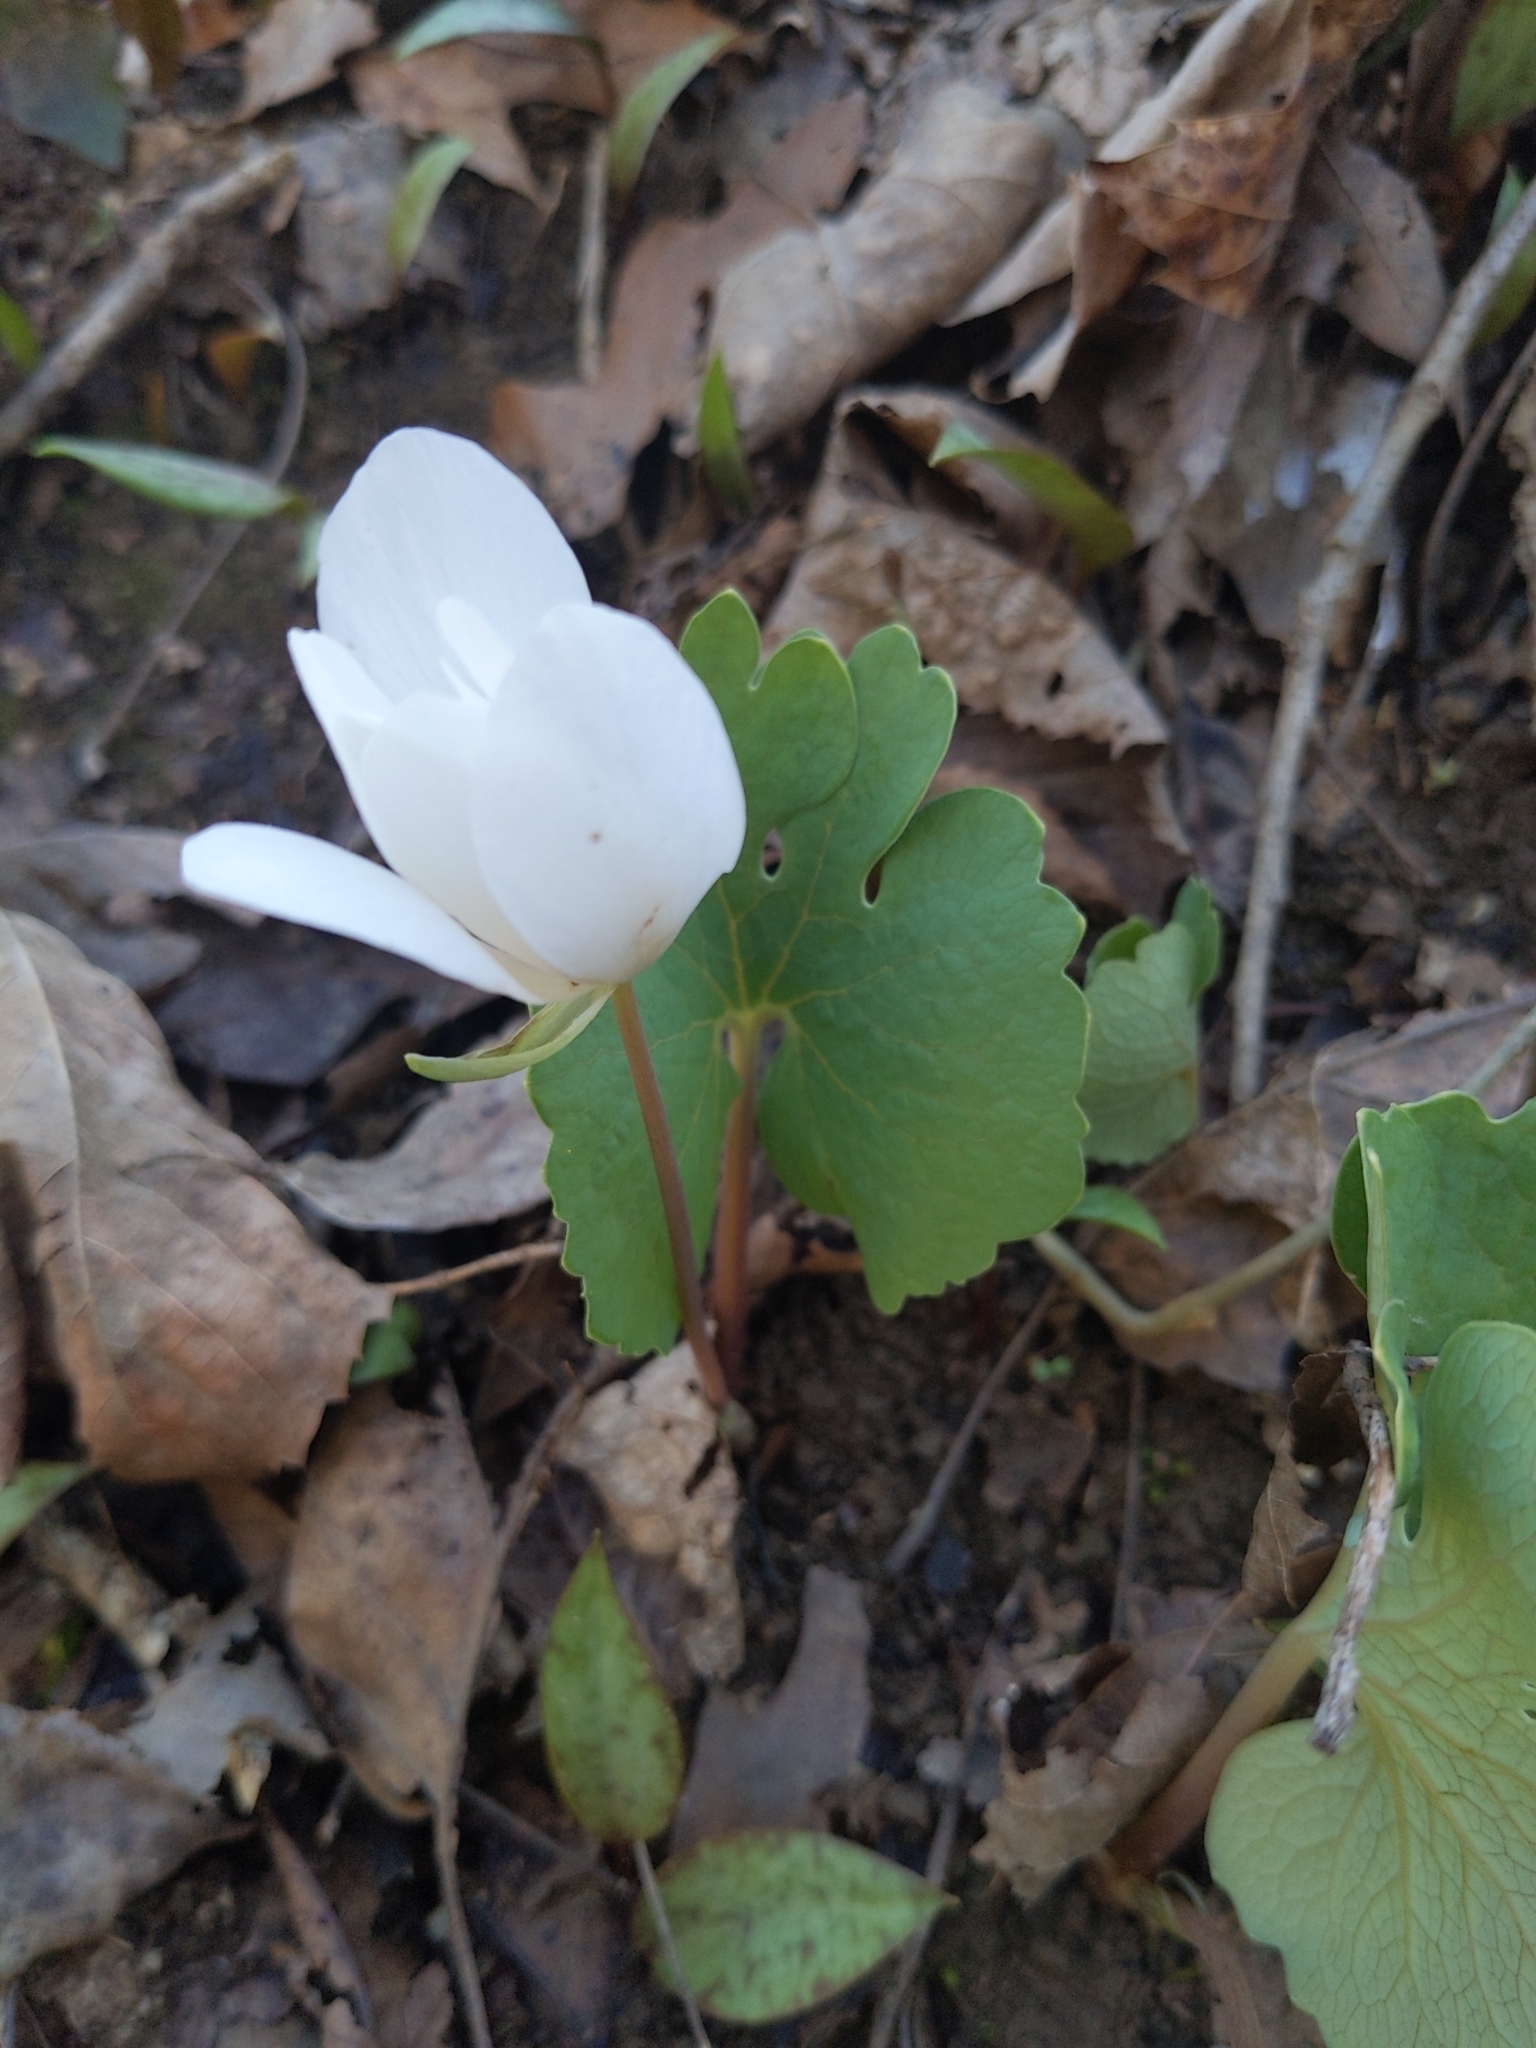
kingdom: Plantae
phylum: Tracheophyta
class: Magnoliopsida
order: Ranunculales
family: Papaveraceae
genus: Sanguinaria
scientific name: Sanguinaria canadensis
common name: Bloodroot
